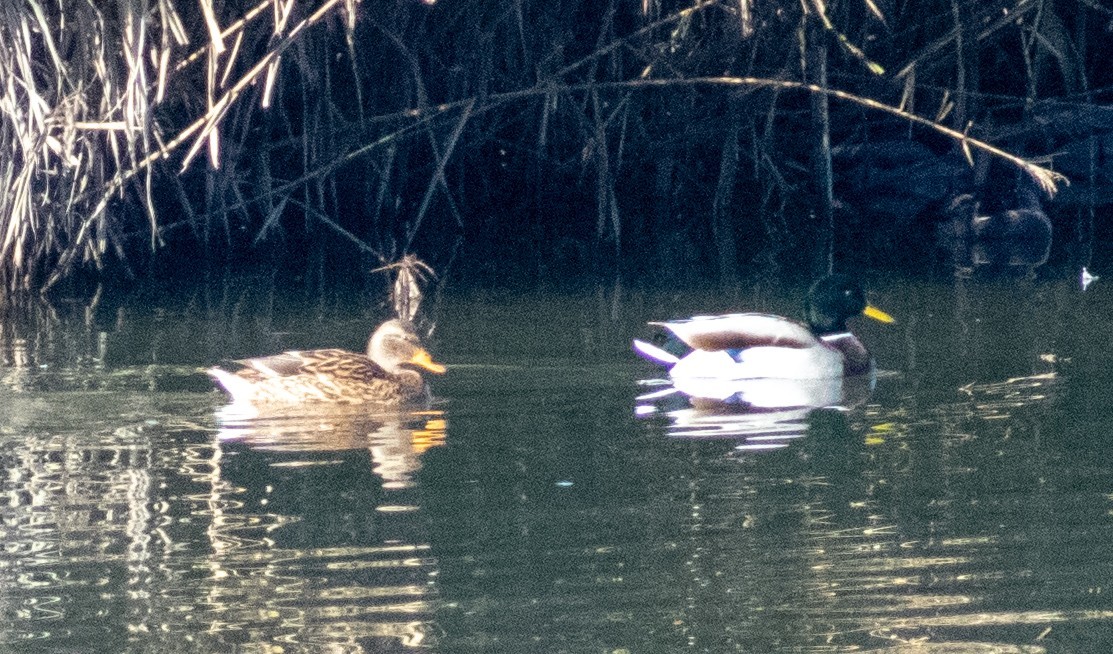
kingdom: Animalia
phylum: Chordata
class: Aves
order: Anseriformes
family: Anatidae
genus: Anas
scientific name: Anas platyrhynchos
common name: Mallard
